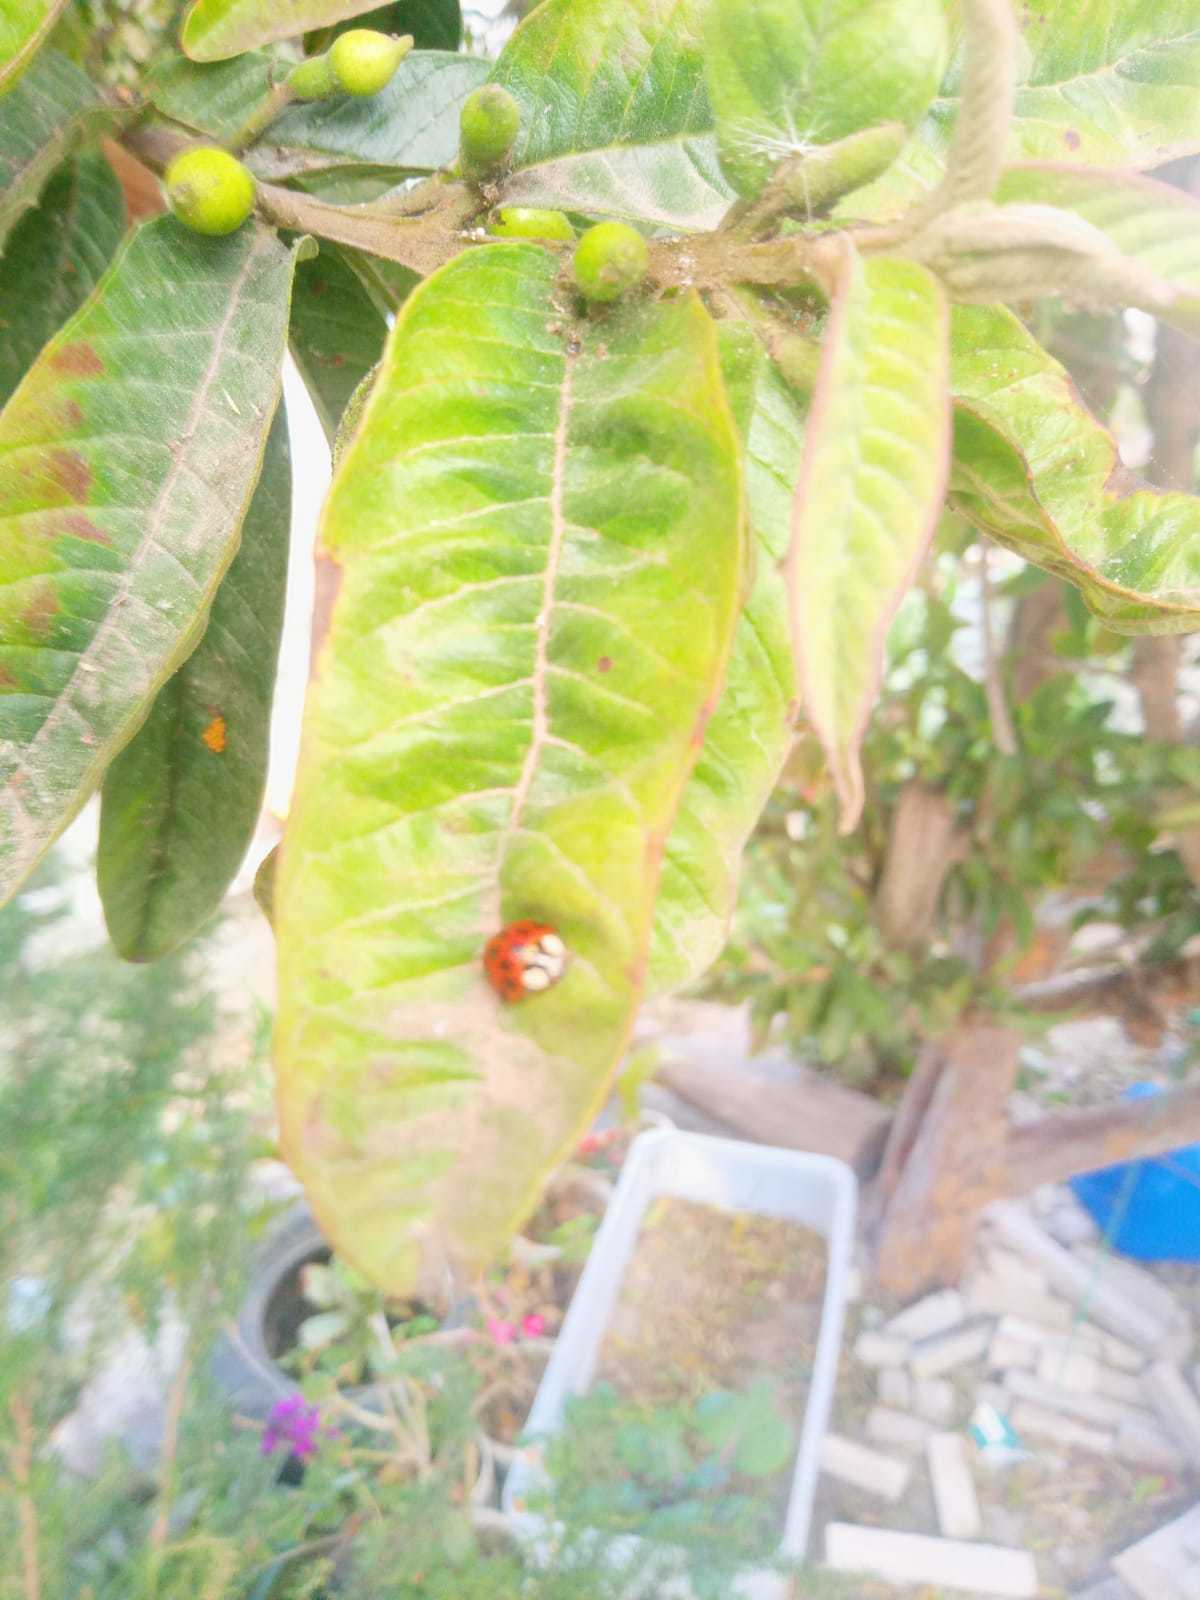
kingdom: Animalia
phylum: Arthropoda
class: Insecta
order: Coleoptera
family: Coccinellidae
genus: Harmonia
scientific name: Harmonia axyridis
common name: Harlequin ladybird
